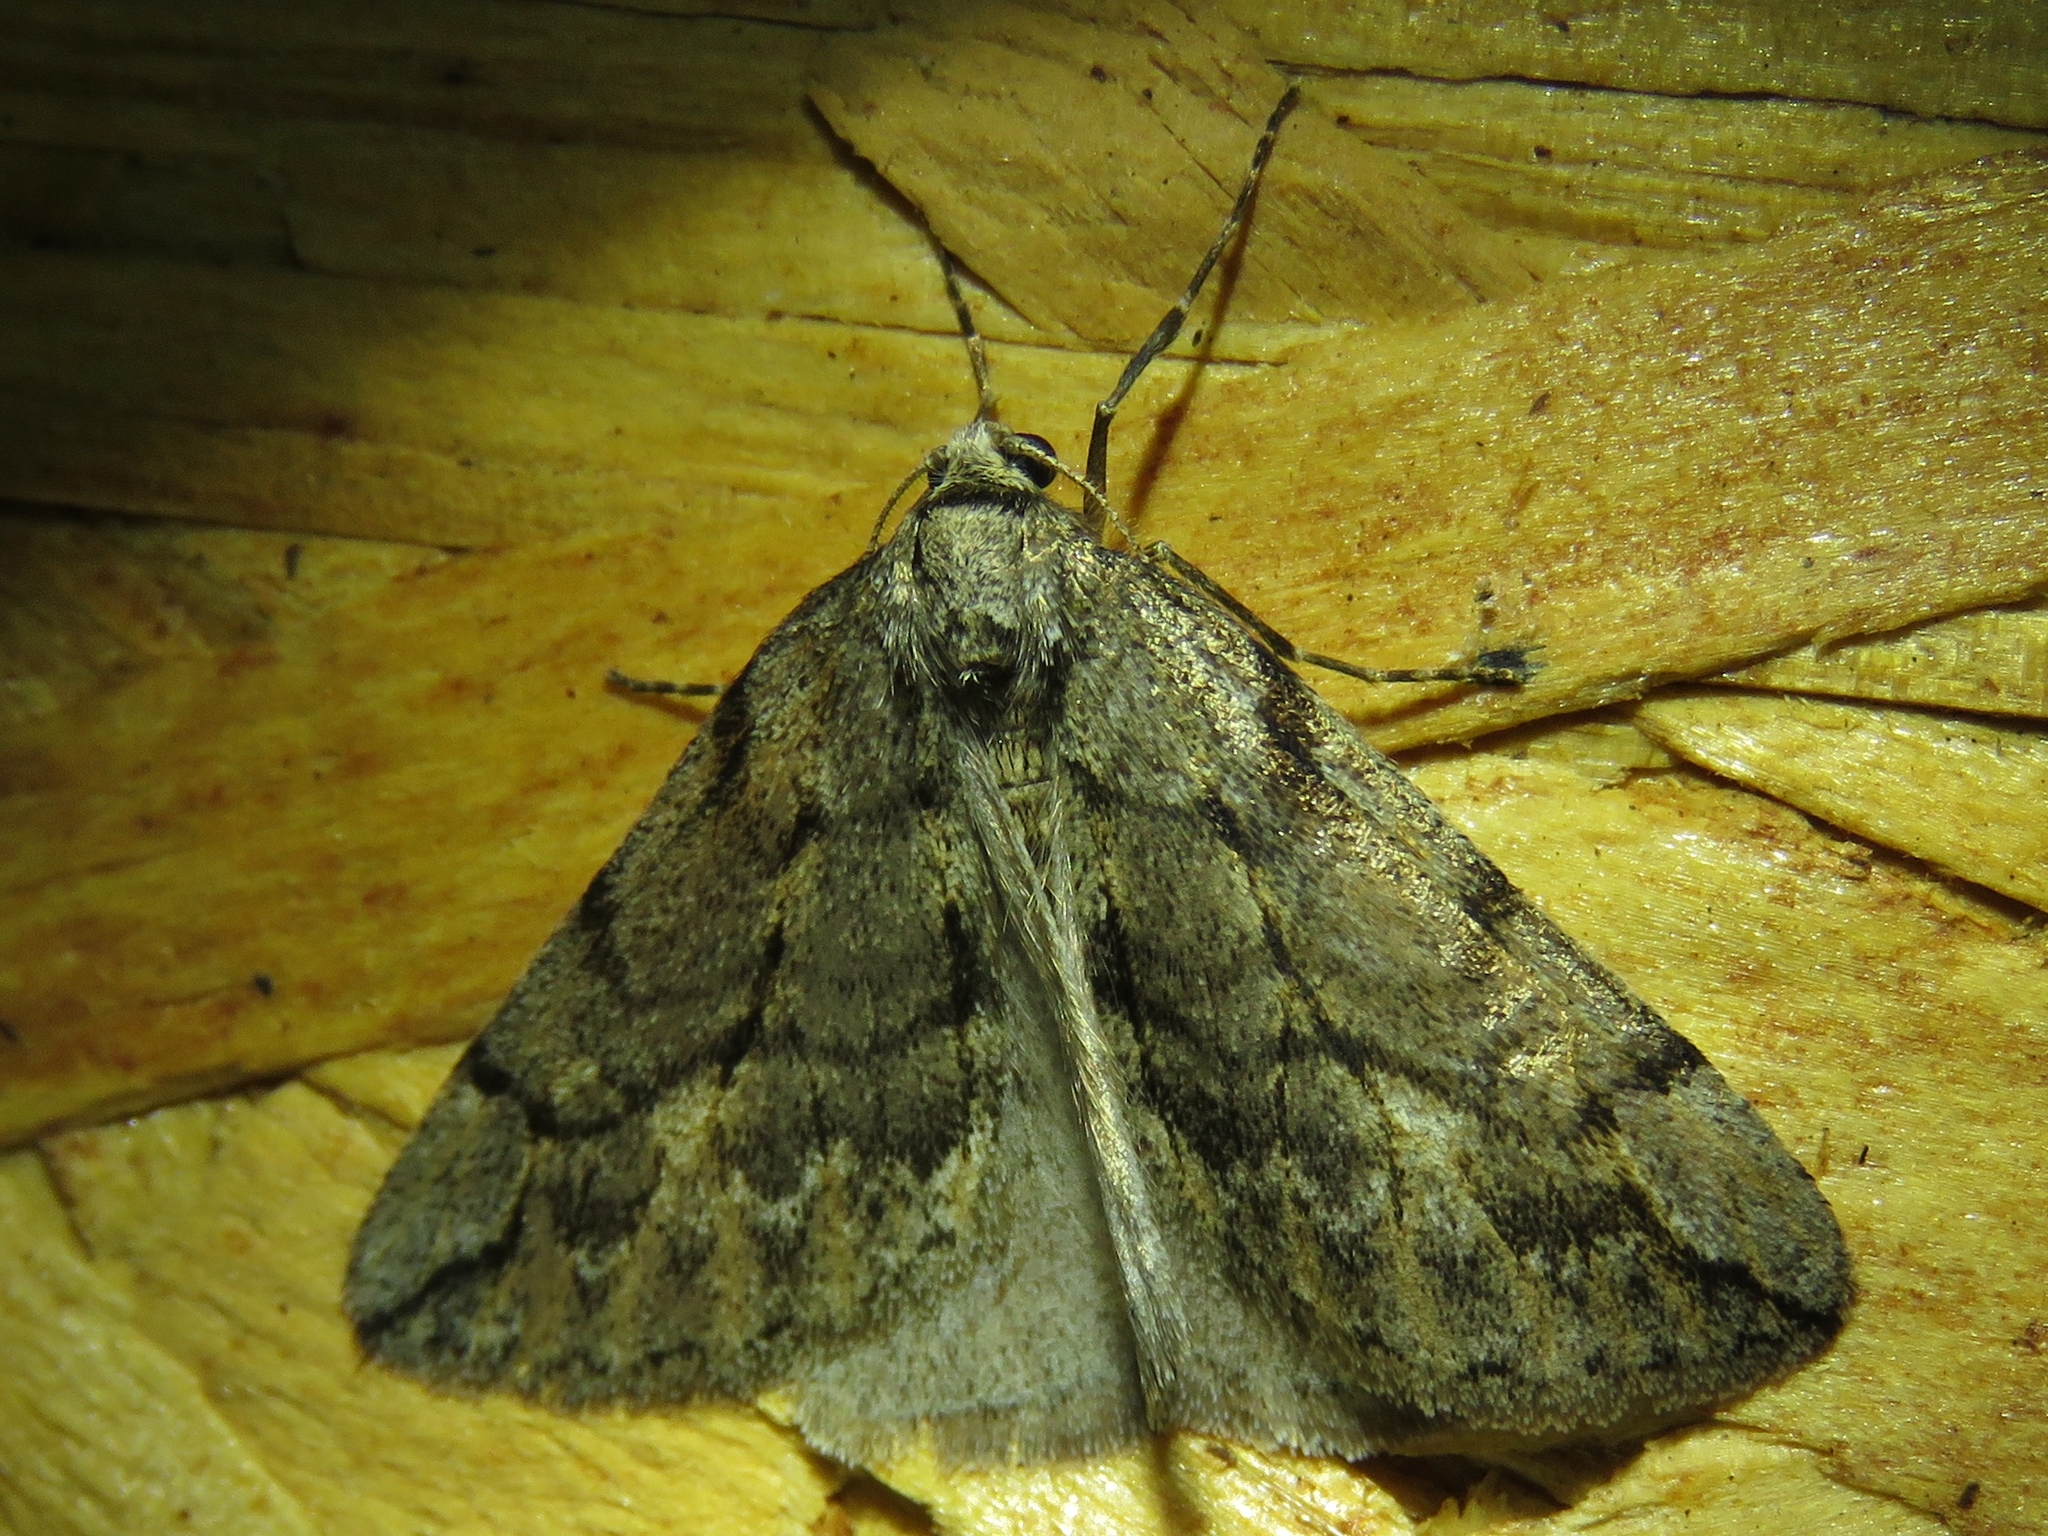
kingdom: Animalia
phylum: Arthropoda
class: Insecta
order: Lepidoptera
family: Geometridae
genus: Paleacrita
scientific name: Paleacrita vernata
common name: Spring cankerworm
